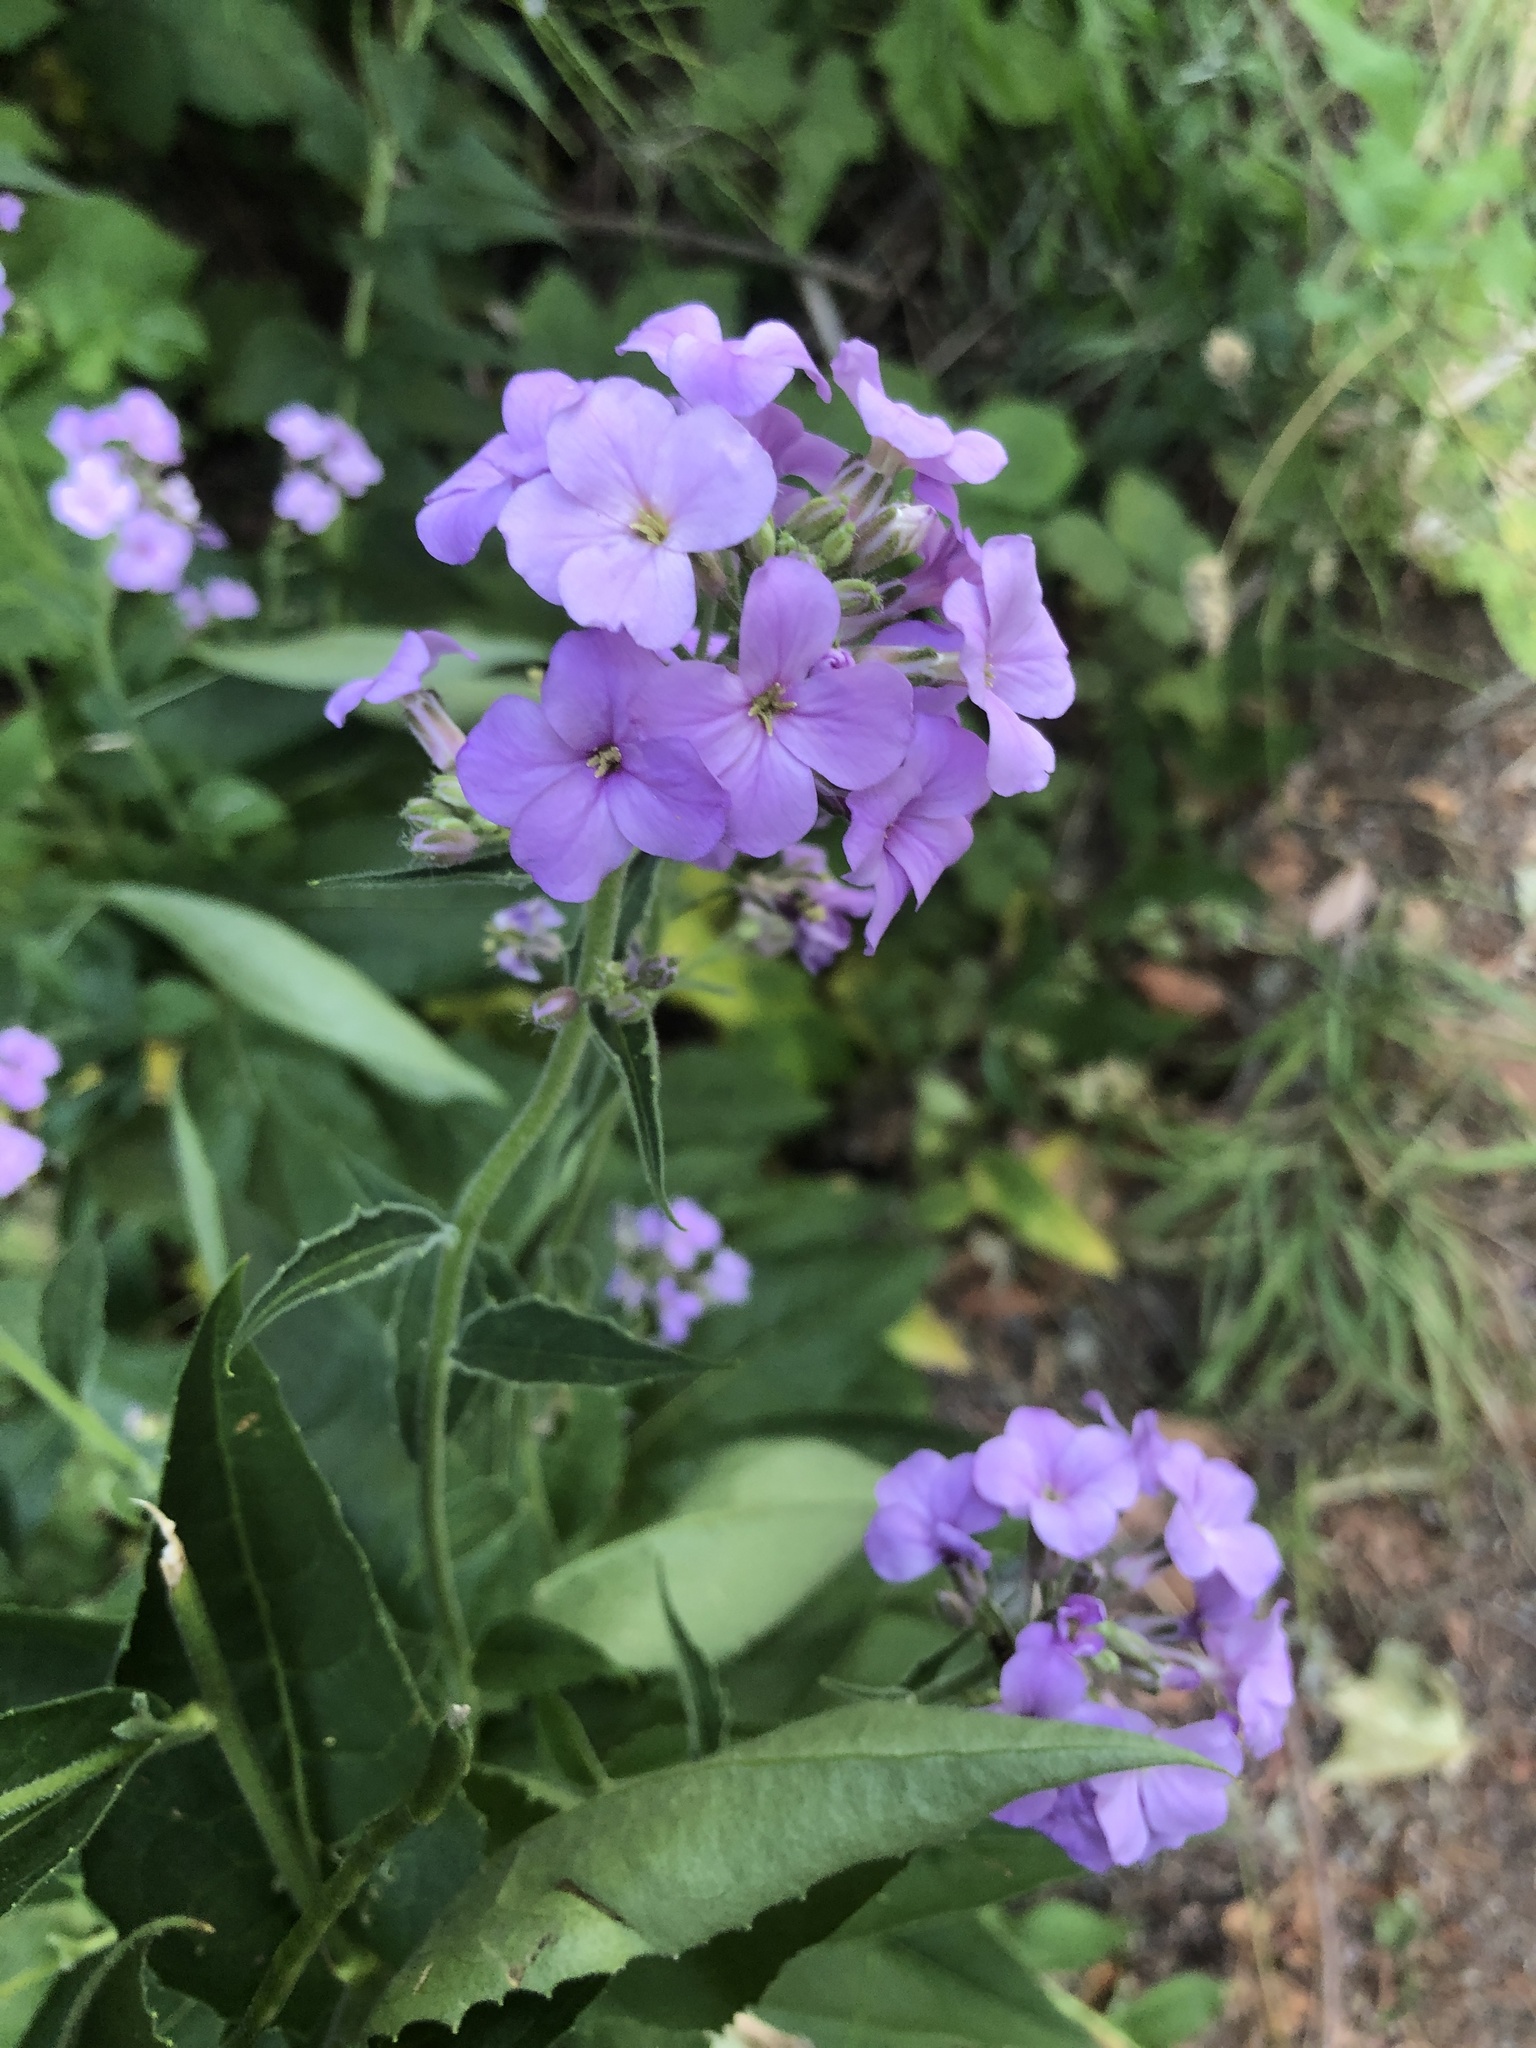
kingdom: Plantae
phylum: Tracheophyta
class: Magnoliopsida
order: Brassicales
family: Brassicaceae
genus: Hesperis
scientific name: Hesperis matronalis
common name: Dame's-violet
